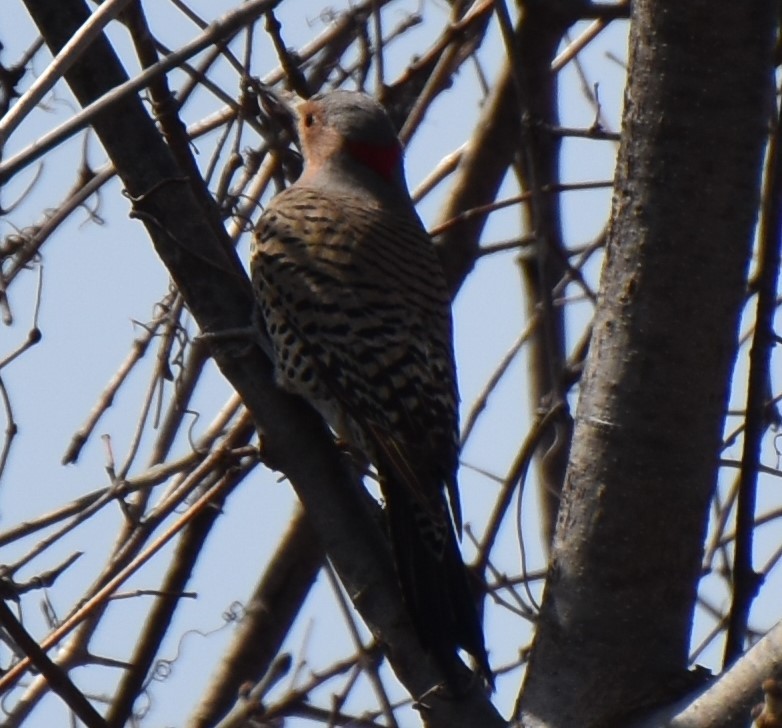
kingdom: Animalia
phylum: Chordata
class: Aves
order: Piciformes
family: Picidae
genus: Colaptes
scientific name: Colaptes auratus
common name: Northern flicker
